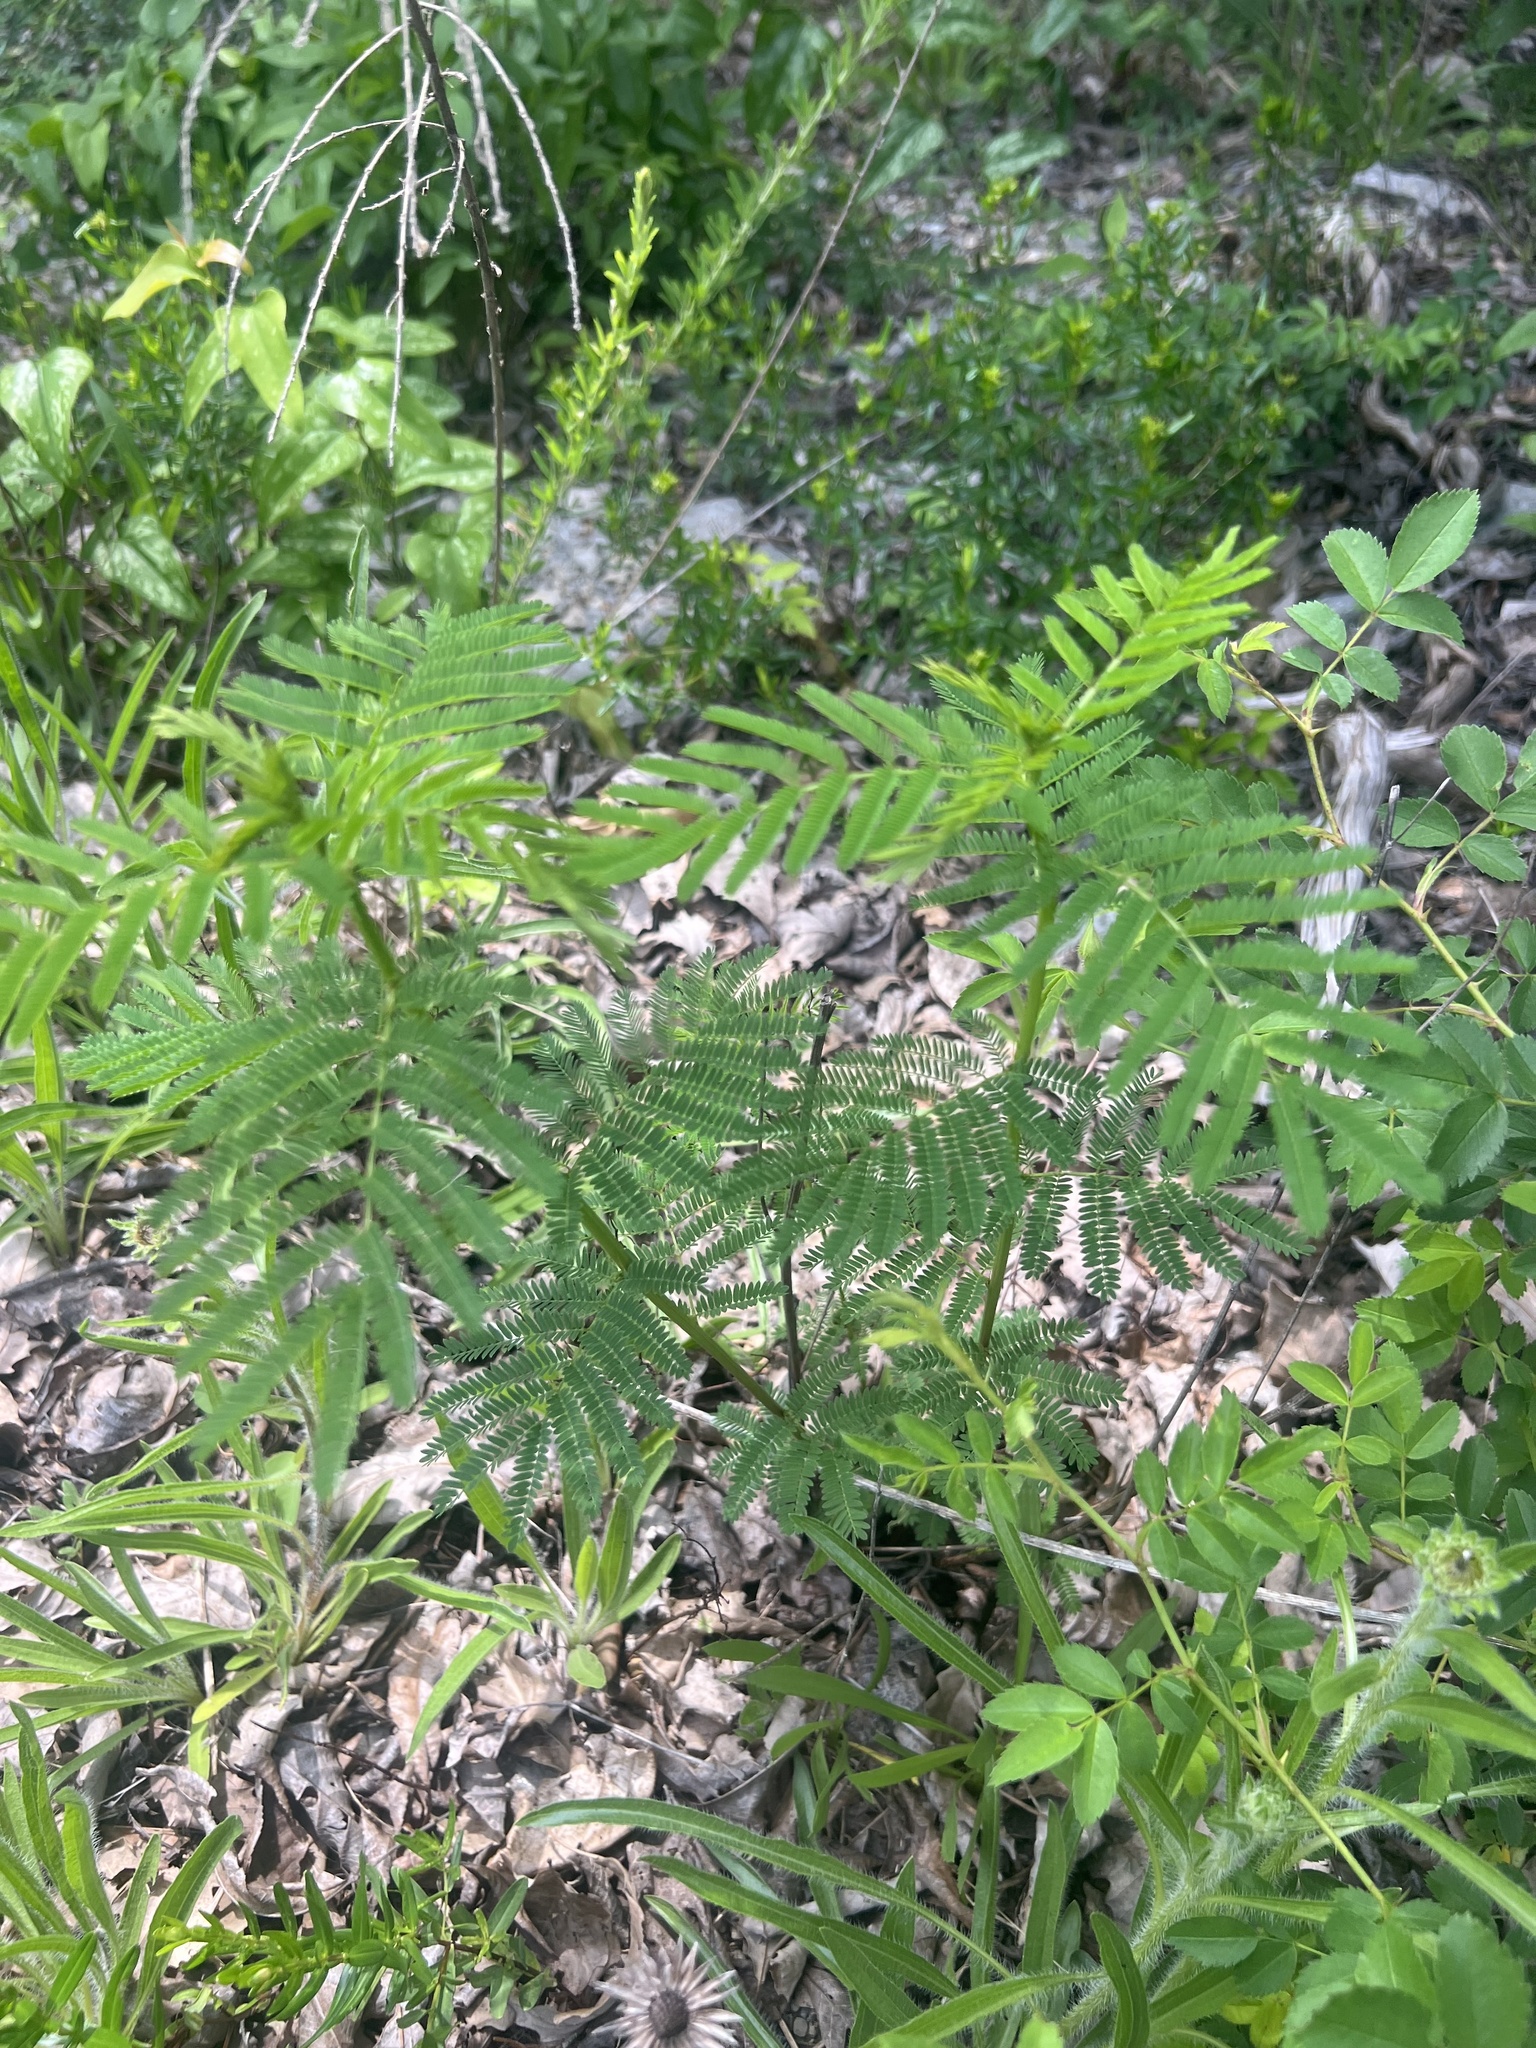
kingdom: Plantae
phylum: Tracheophyta
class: Magnoliopsida
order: Fabales
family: Fabaceae
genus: Desmanthus
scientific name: Desmanthus illinoensis
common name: Illinois bundle-flower
